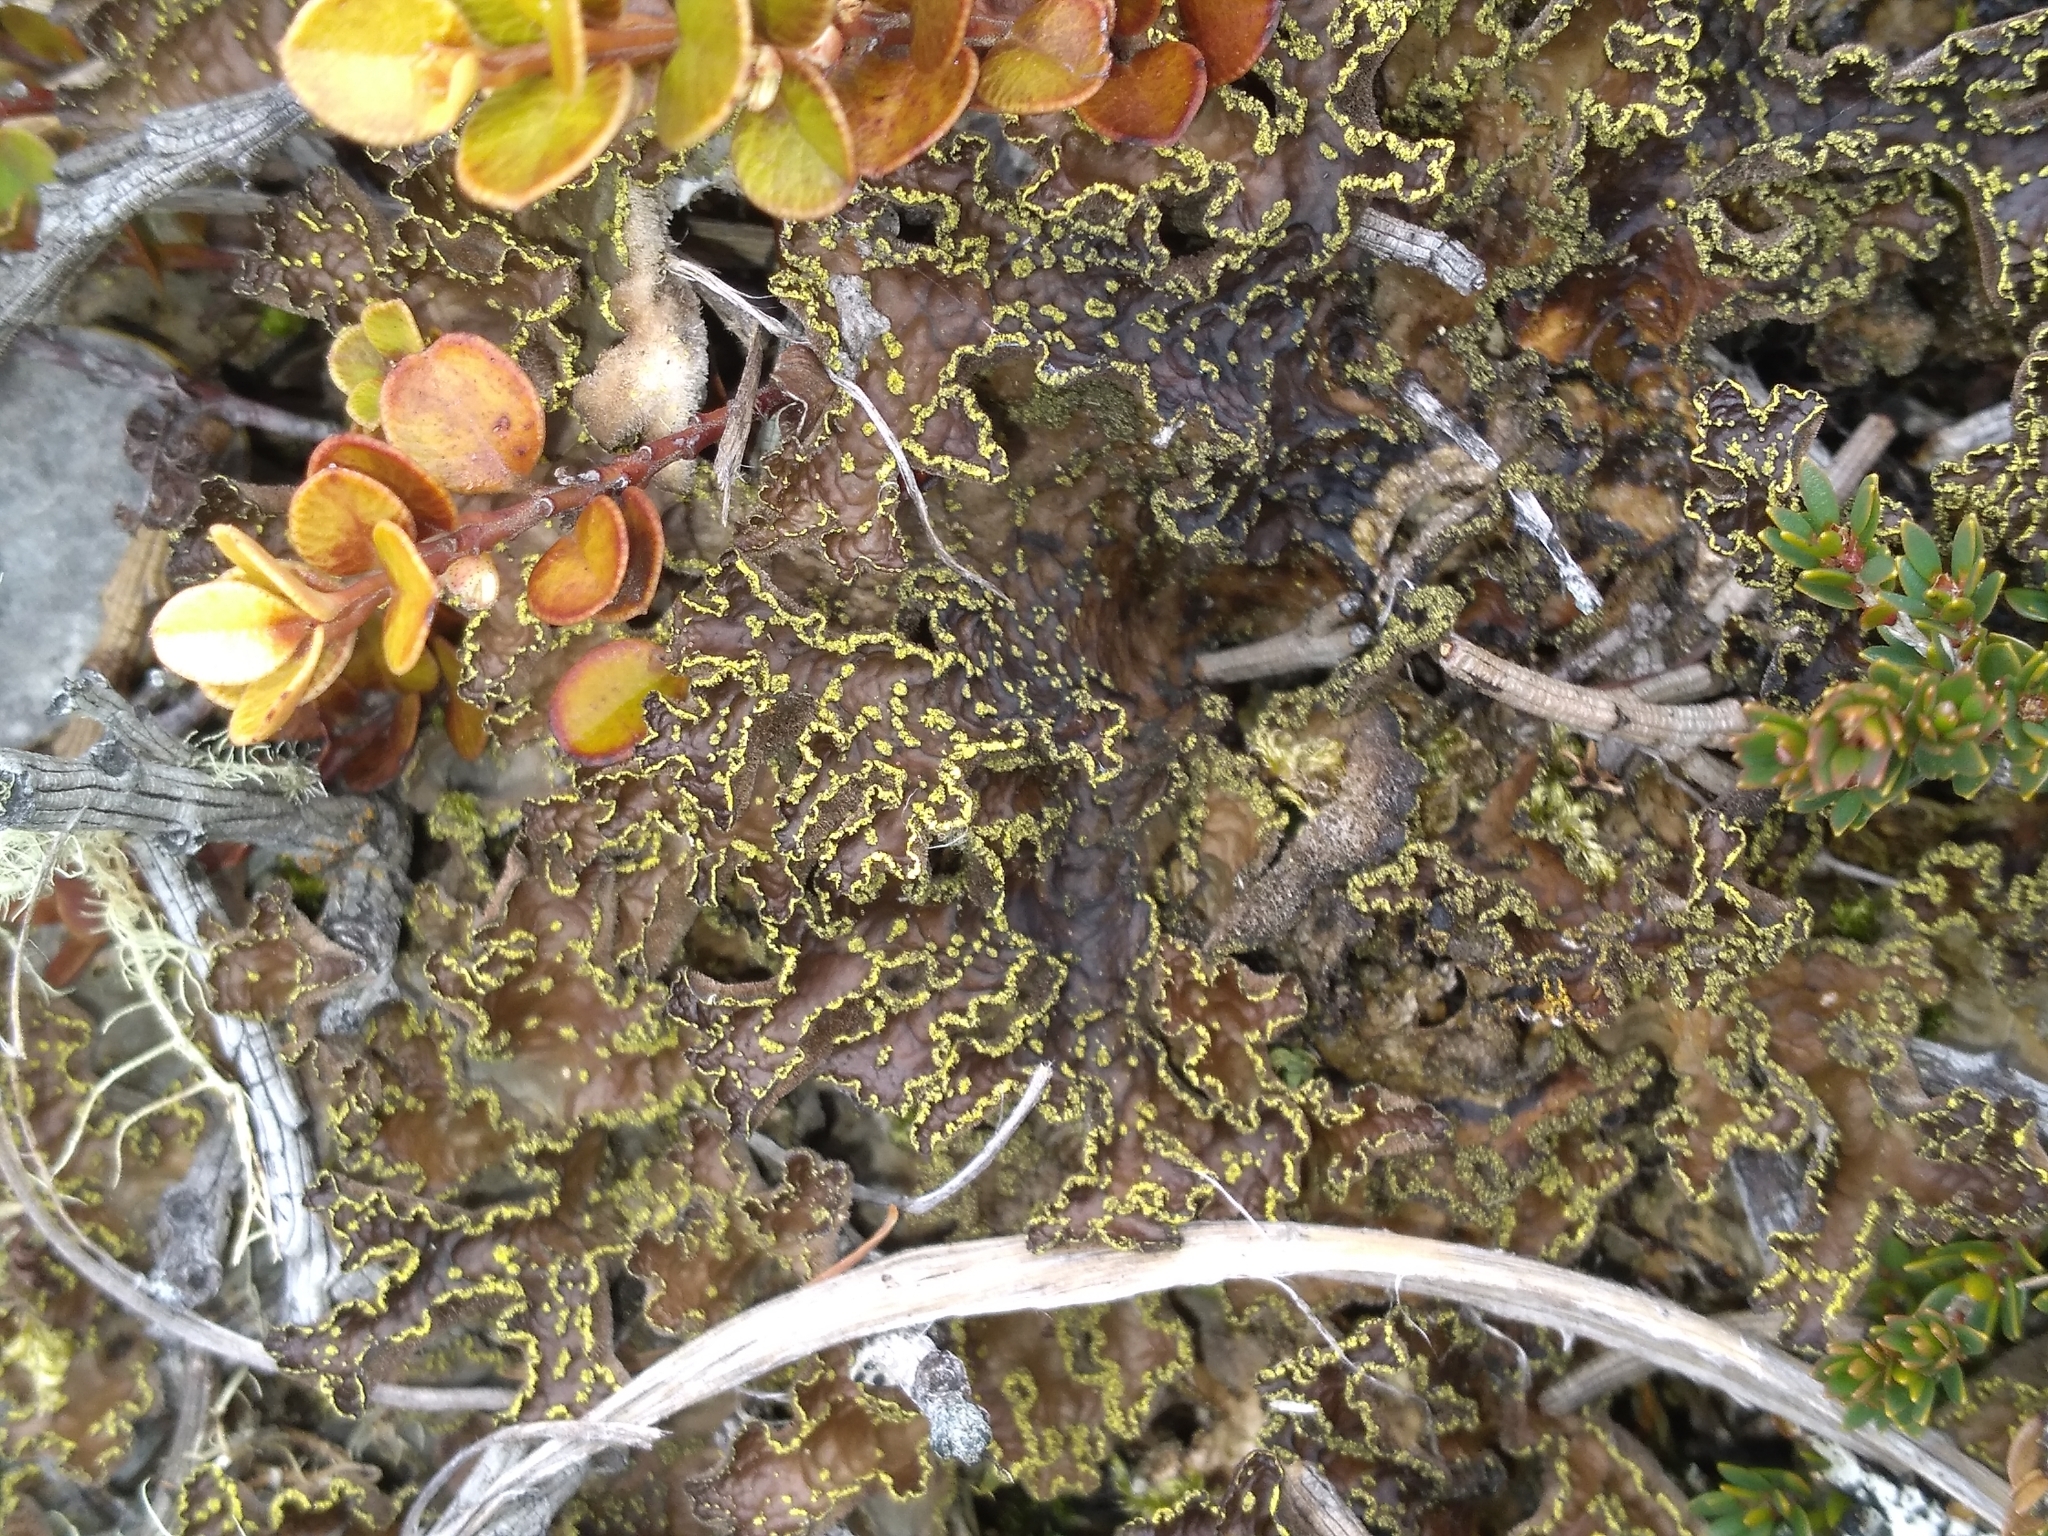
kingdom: Fungi
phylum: Ascomycota
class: Lecanoromycetes
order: Peltigerales
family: Lobariaceae
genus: Pseudocyphellaria
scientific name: Pseudocyphellaria crocata
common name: Golden specklebelly
